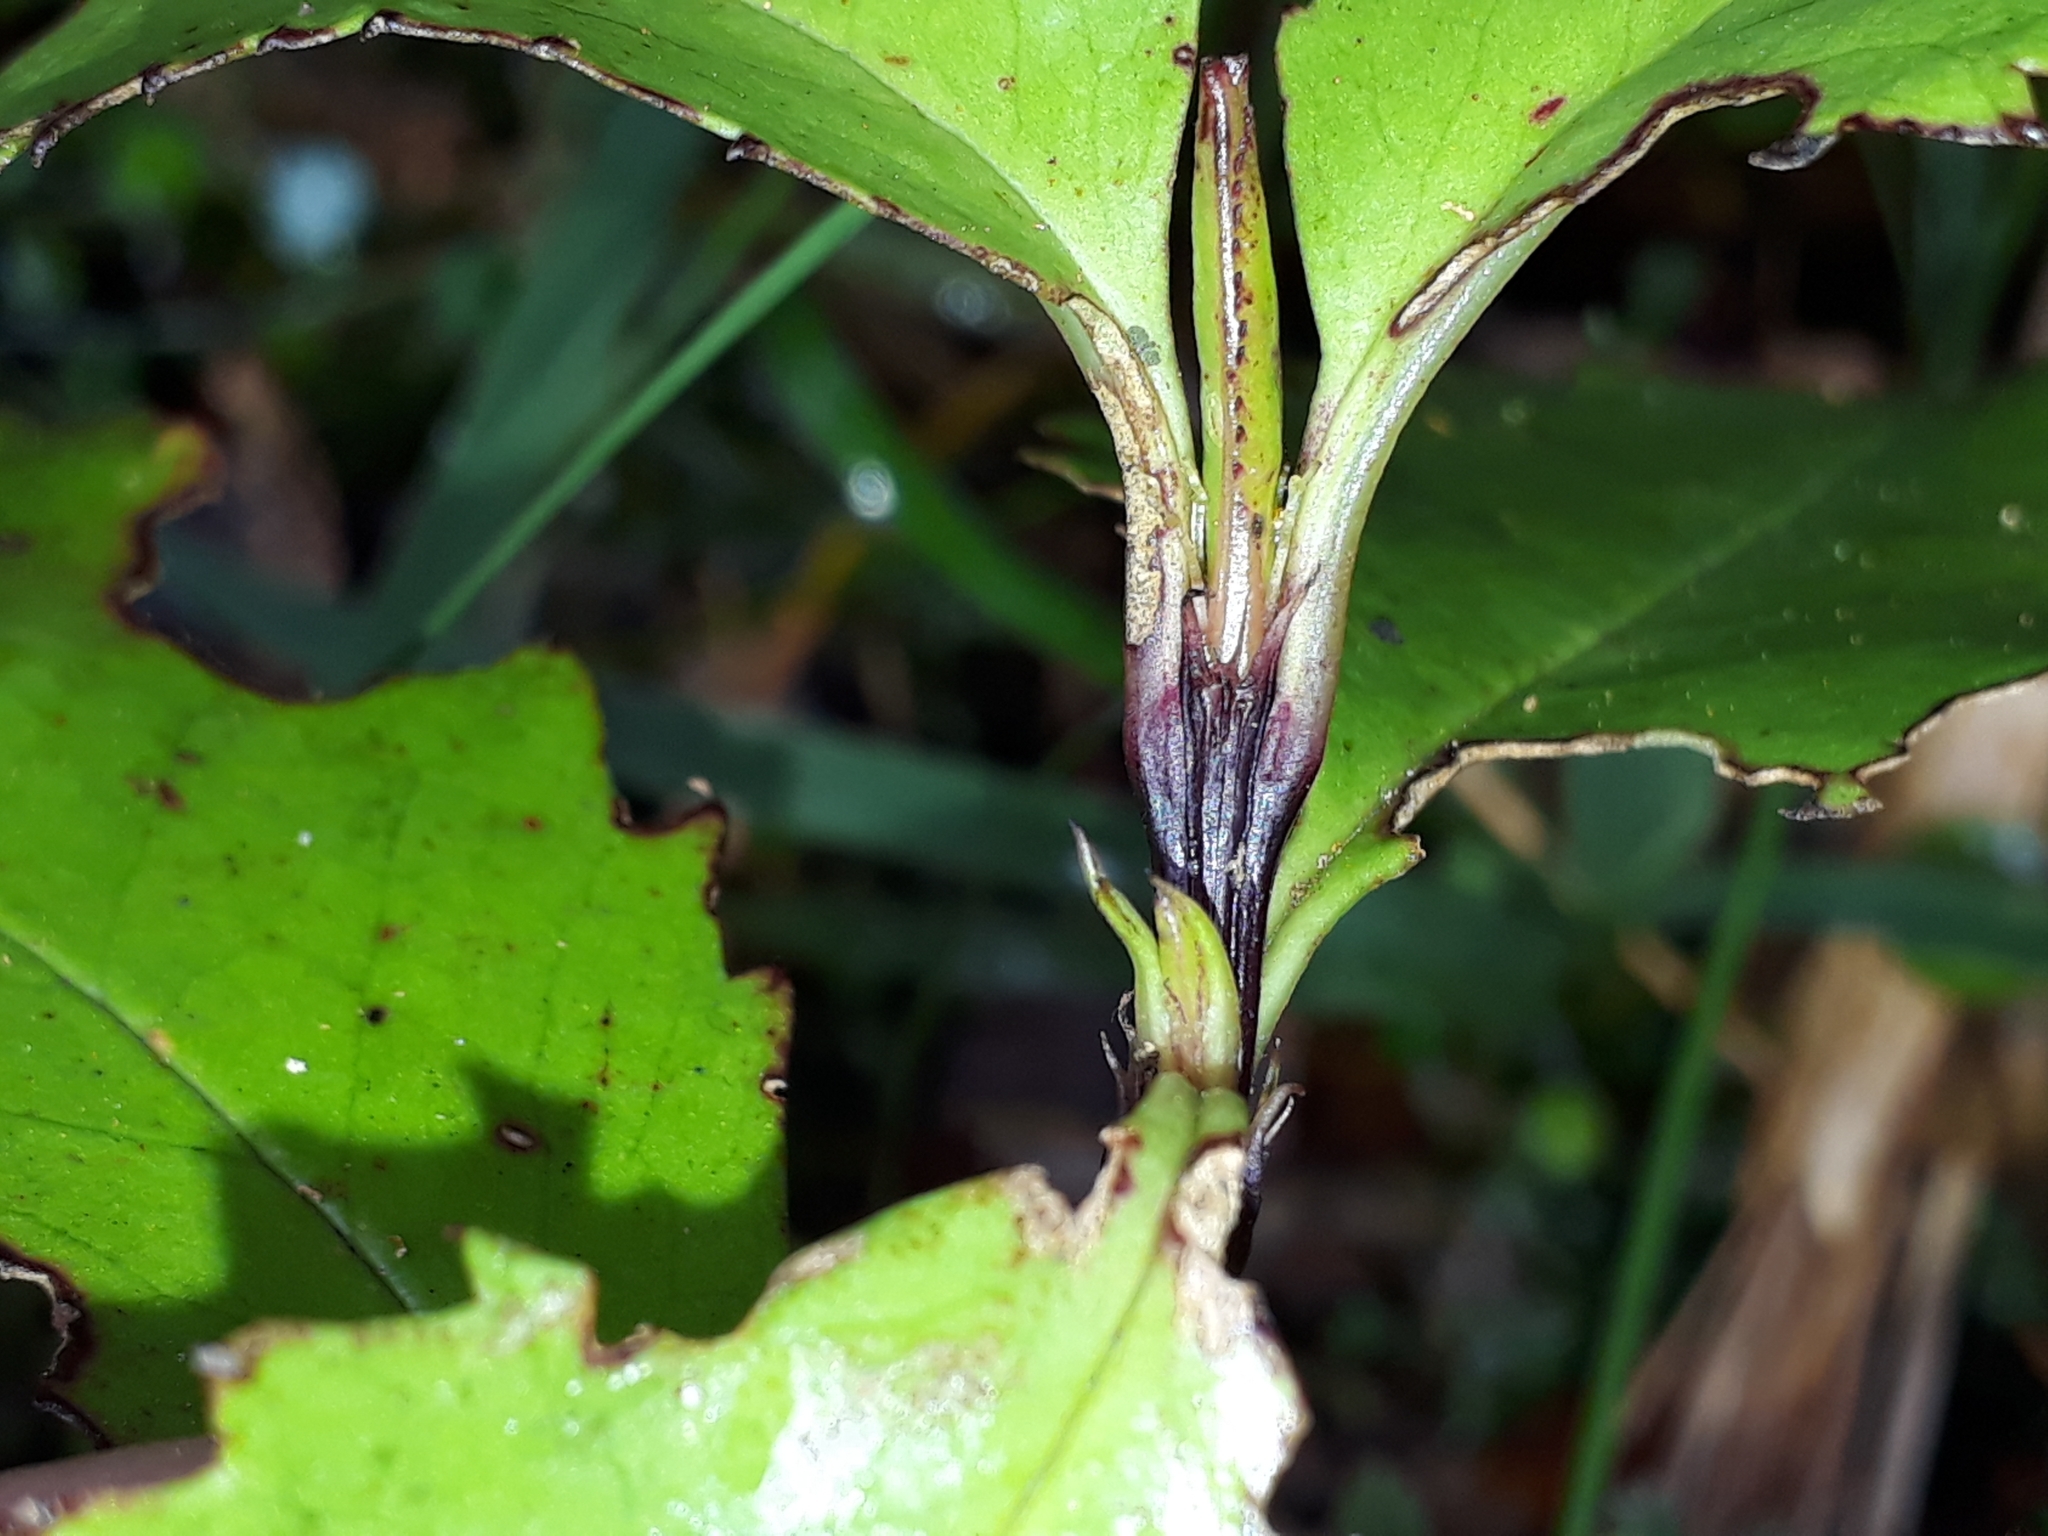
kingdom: Plantae
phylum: Tracheophyta
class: Magnoliopsida
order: Chloranthales
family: Chloranthaceae
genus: Ascarina
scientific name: Ascarina lucida
